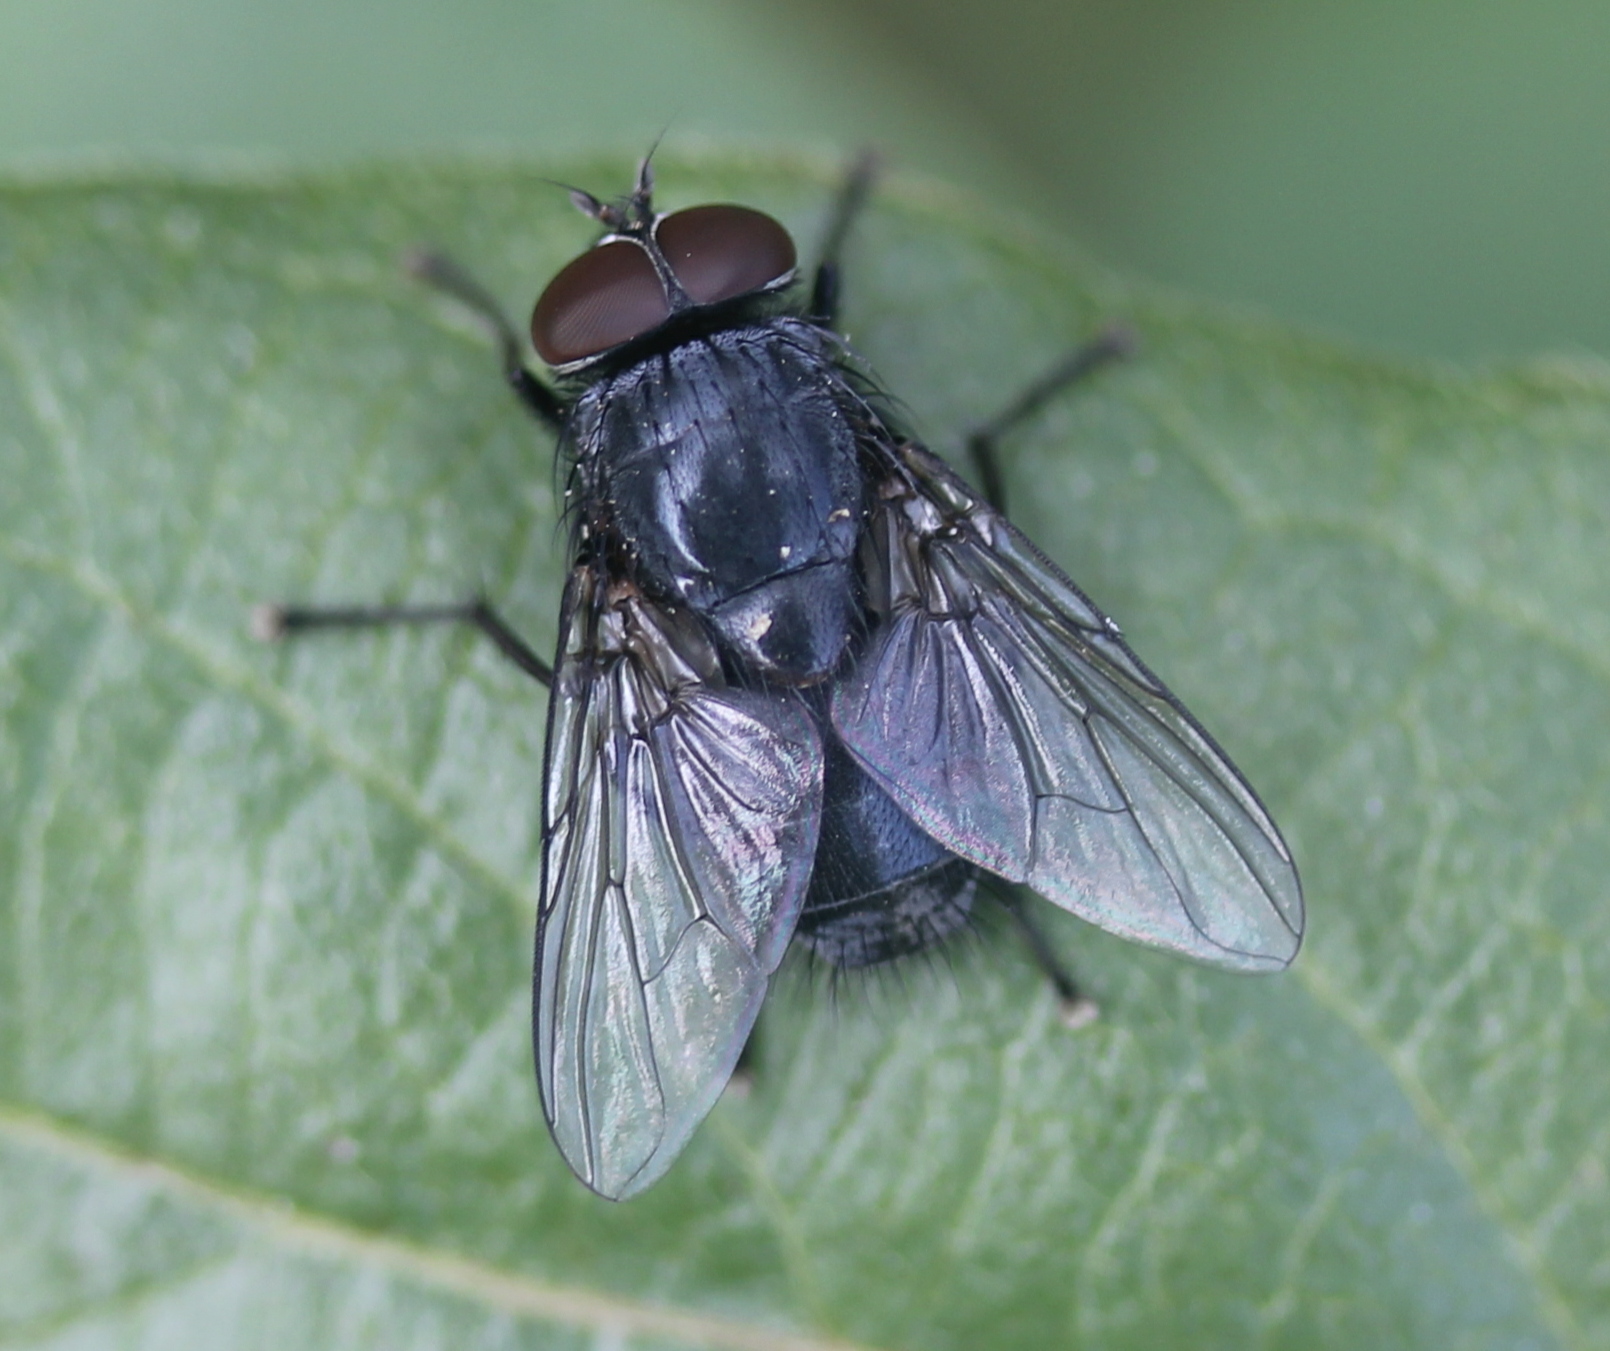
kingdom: Animalia
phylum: Arthropoda
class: Insecta
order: Diptera
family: Muscidae
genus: Muscina
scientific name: Muscina pascuorum
